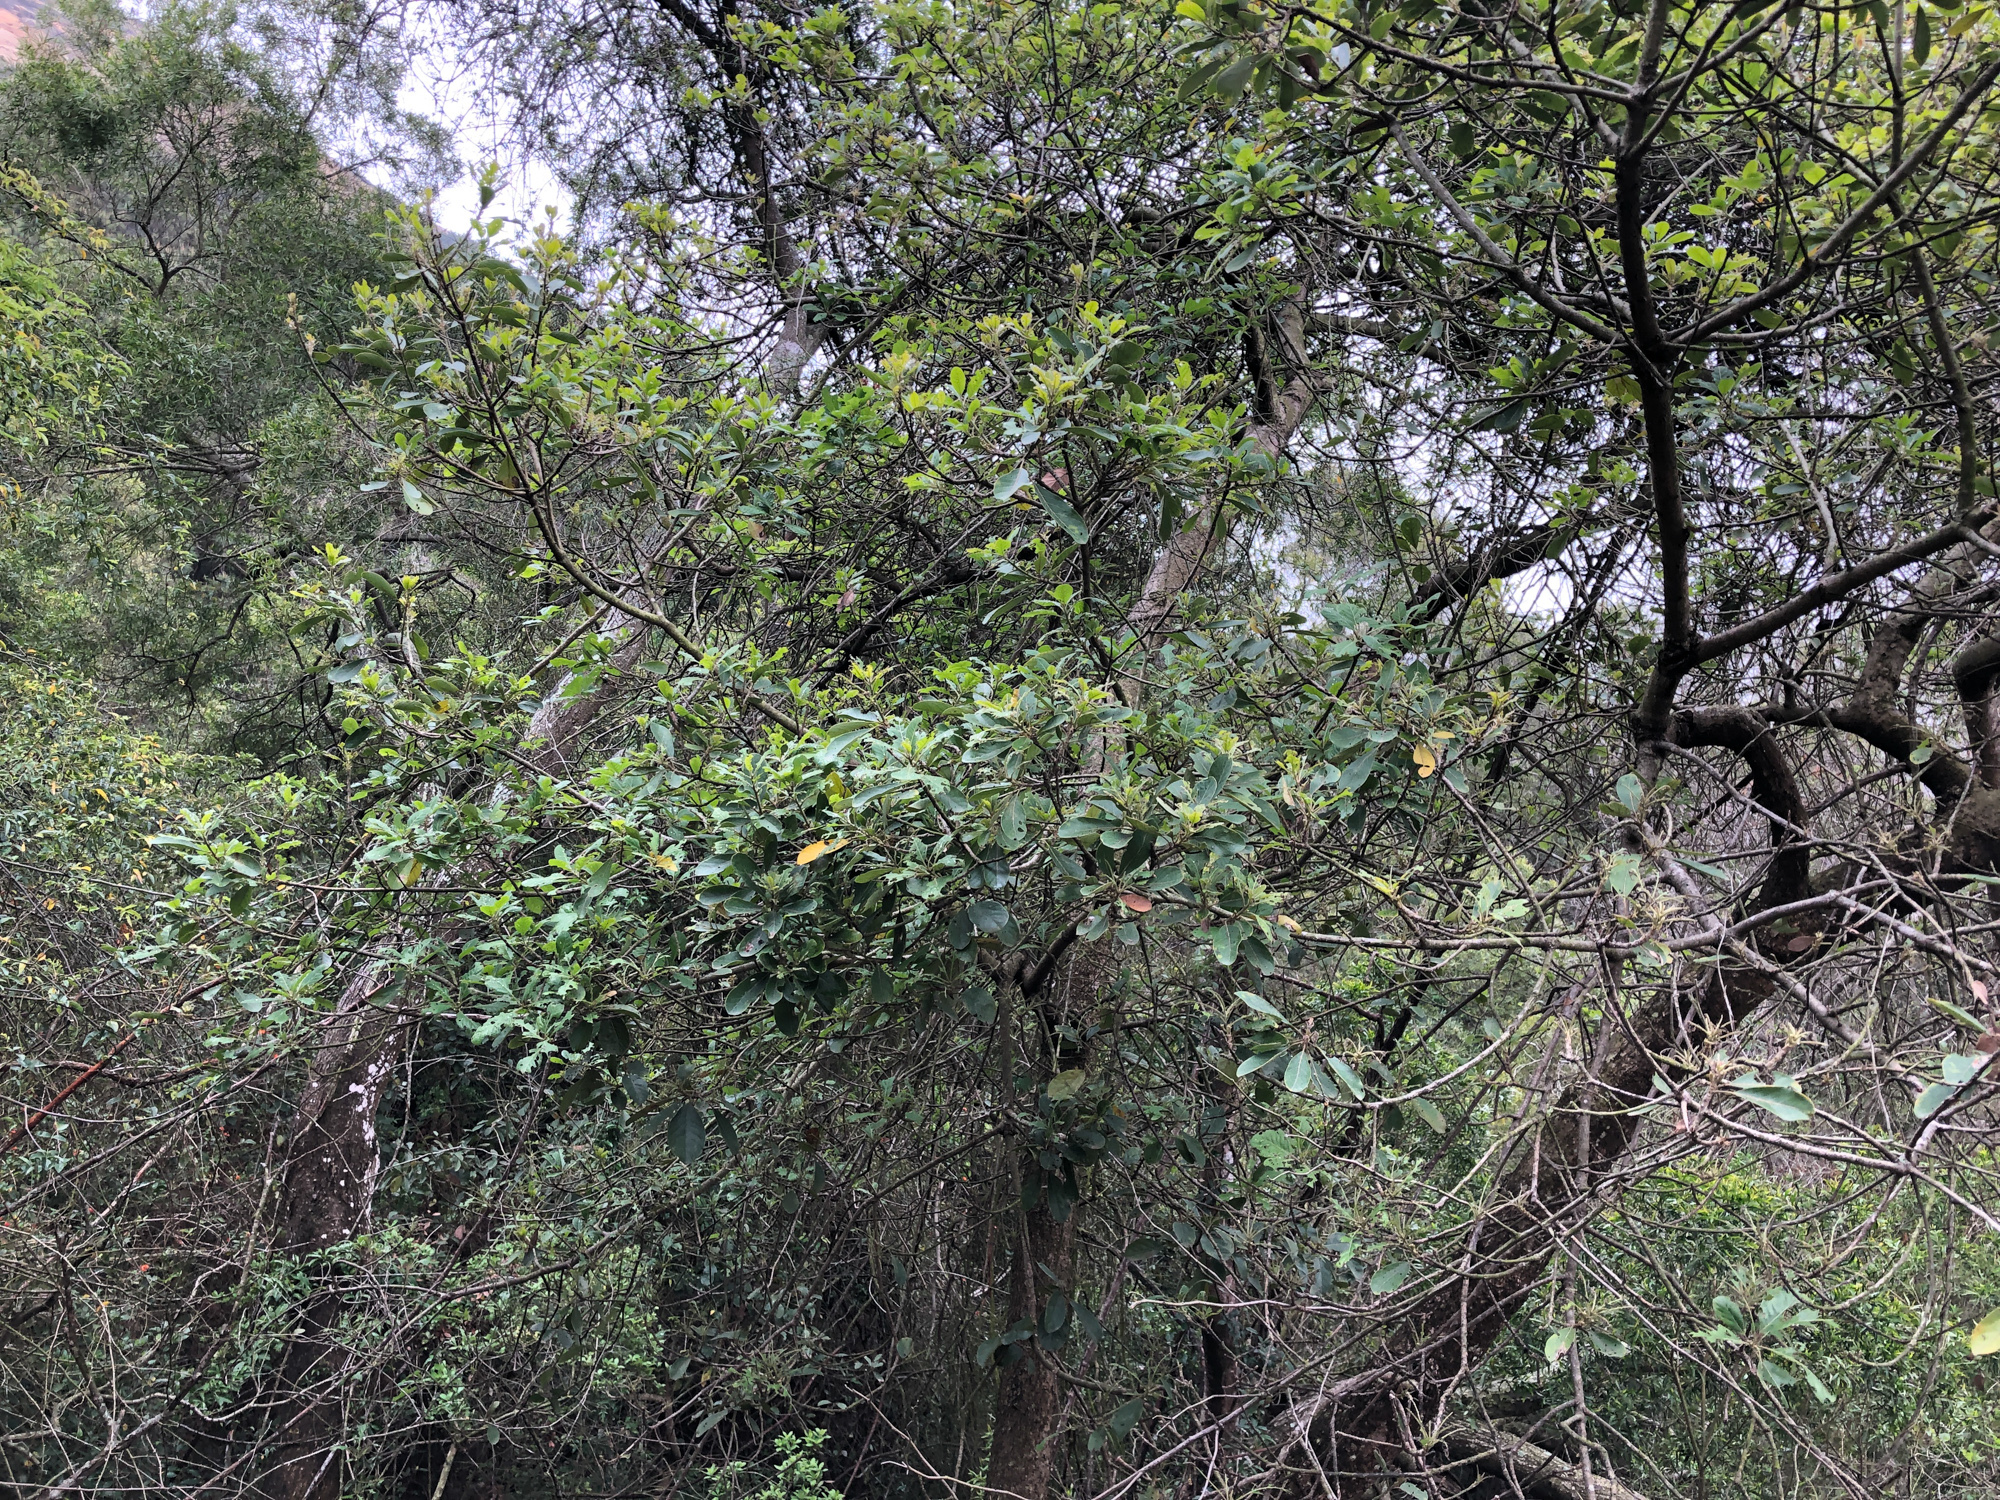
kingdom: Plantae
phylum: Tracheophyta
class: Magnoliopsida
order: Laurales
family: Lauraceae
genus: Litsea
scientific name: Litsea glutinosa
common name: Indian-laurel
